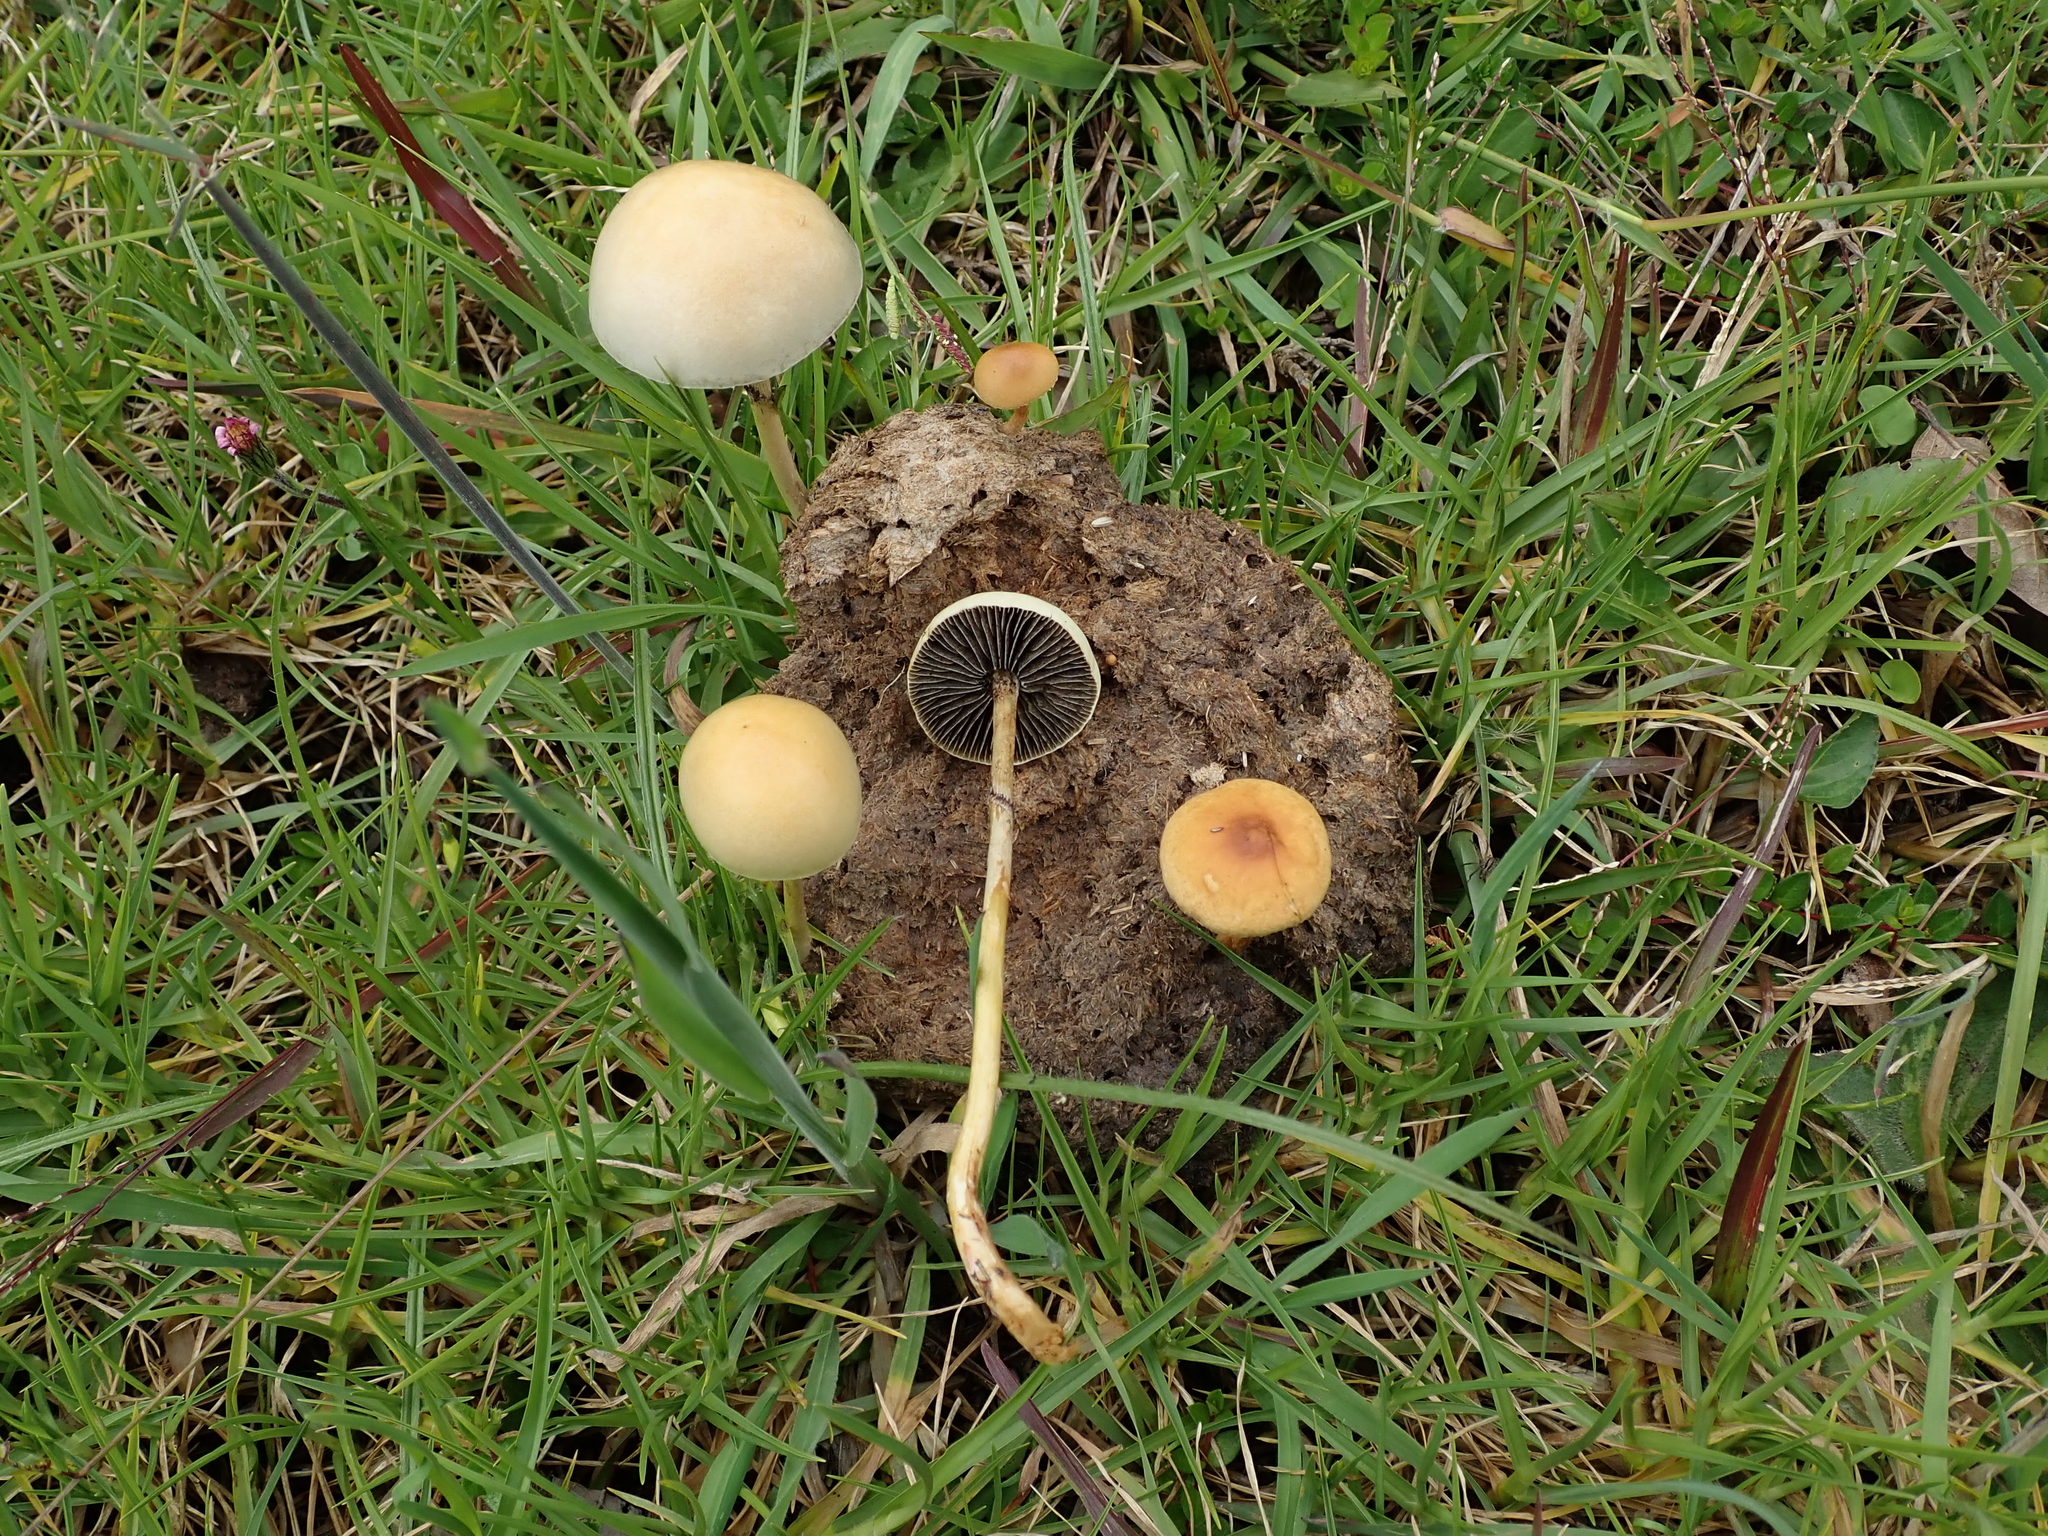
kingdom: Fungi
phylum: Basidiomycota
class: Agaricomycetes
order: Agaricales
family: Strophariaceae
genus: Protostropharia
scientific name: Protostropharia semiglobata
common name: Dung roundhead
